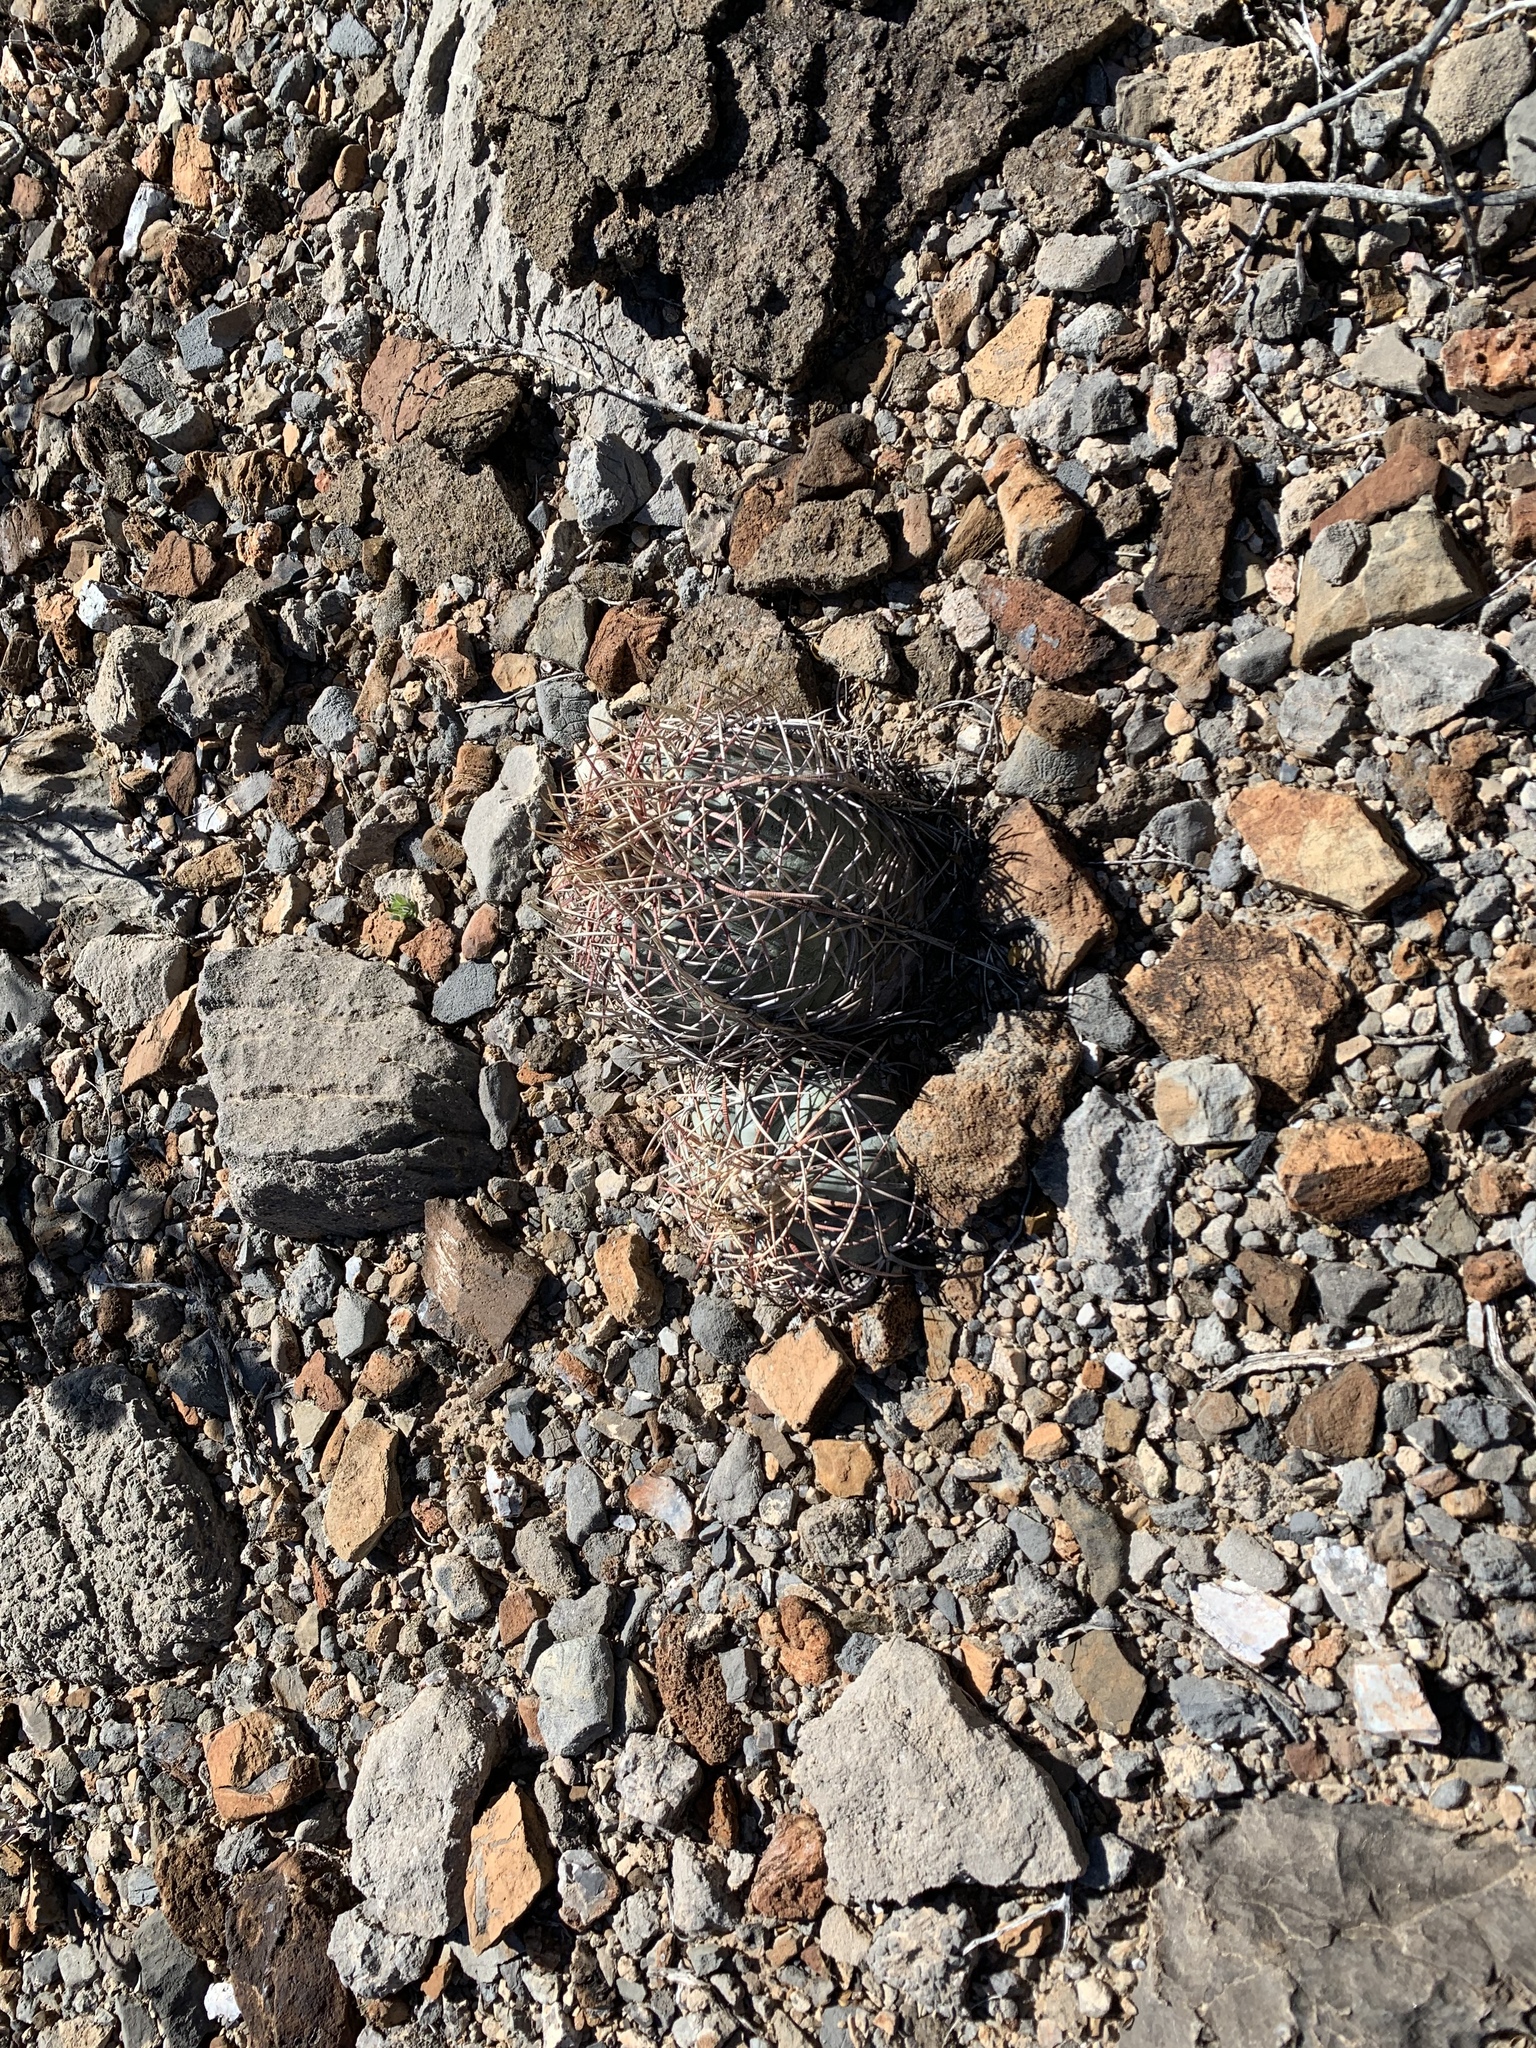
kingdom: Plantae
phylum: Tracheophyta
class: Magnoliopsida
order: Caryophyllales
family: Cactaceae
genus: Echinocactus
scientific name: Echinocactus horizonthalonius
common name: Devilshead
